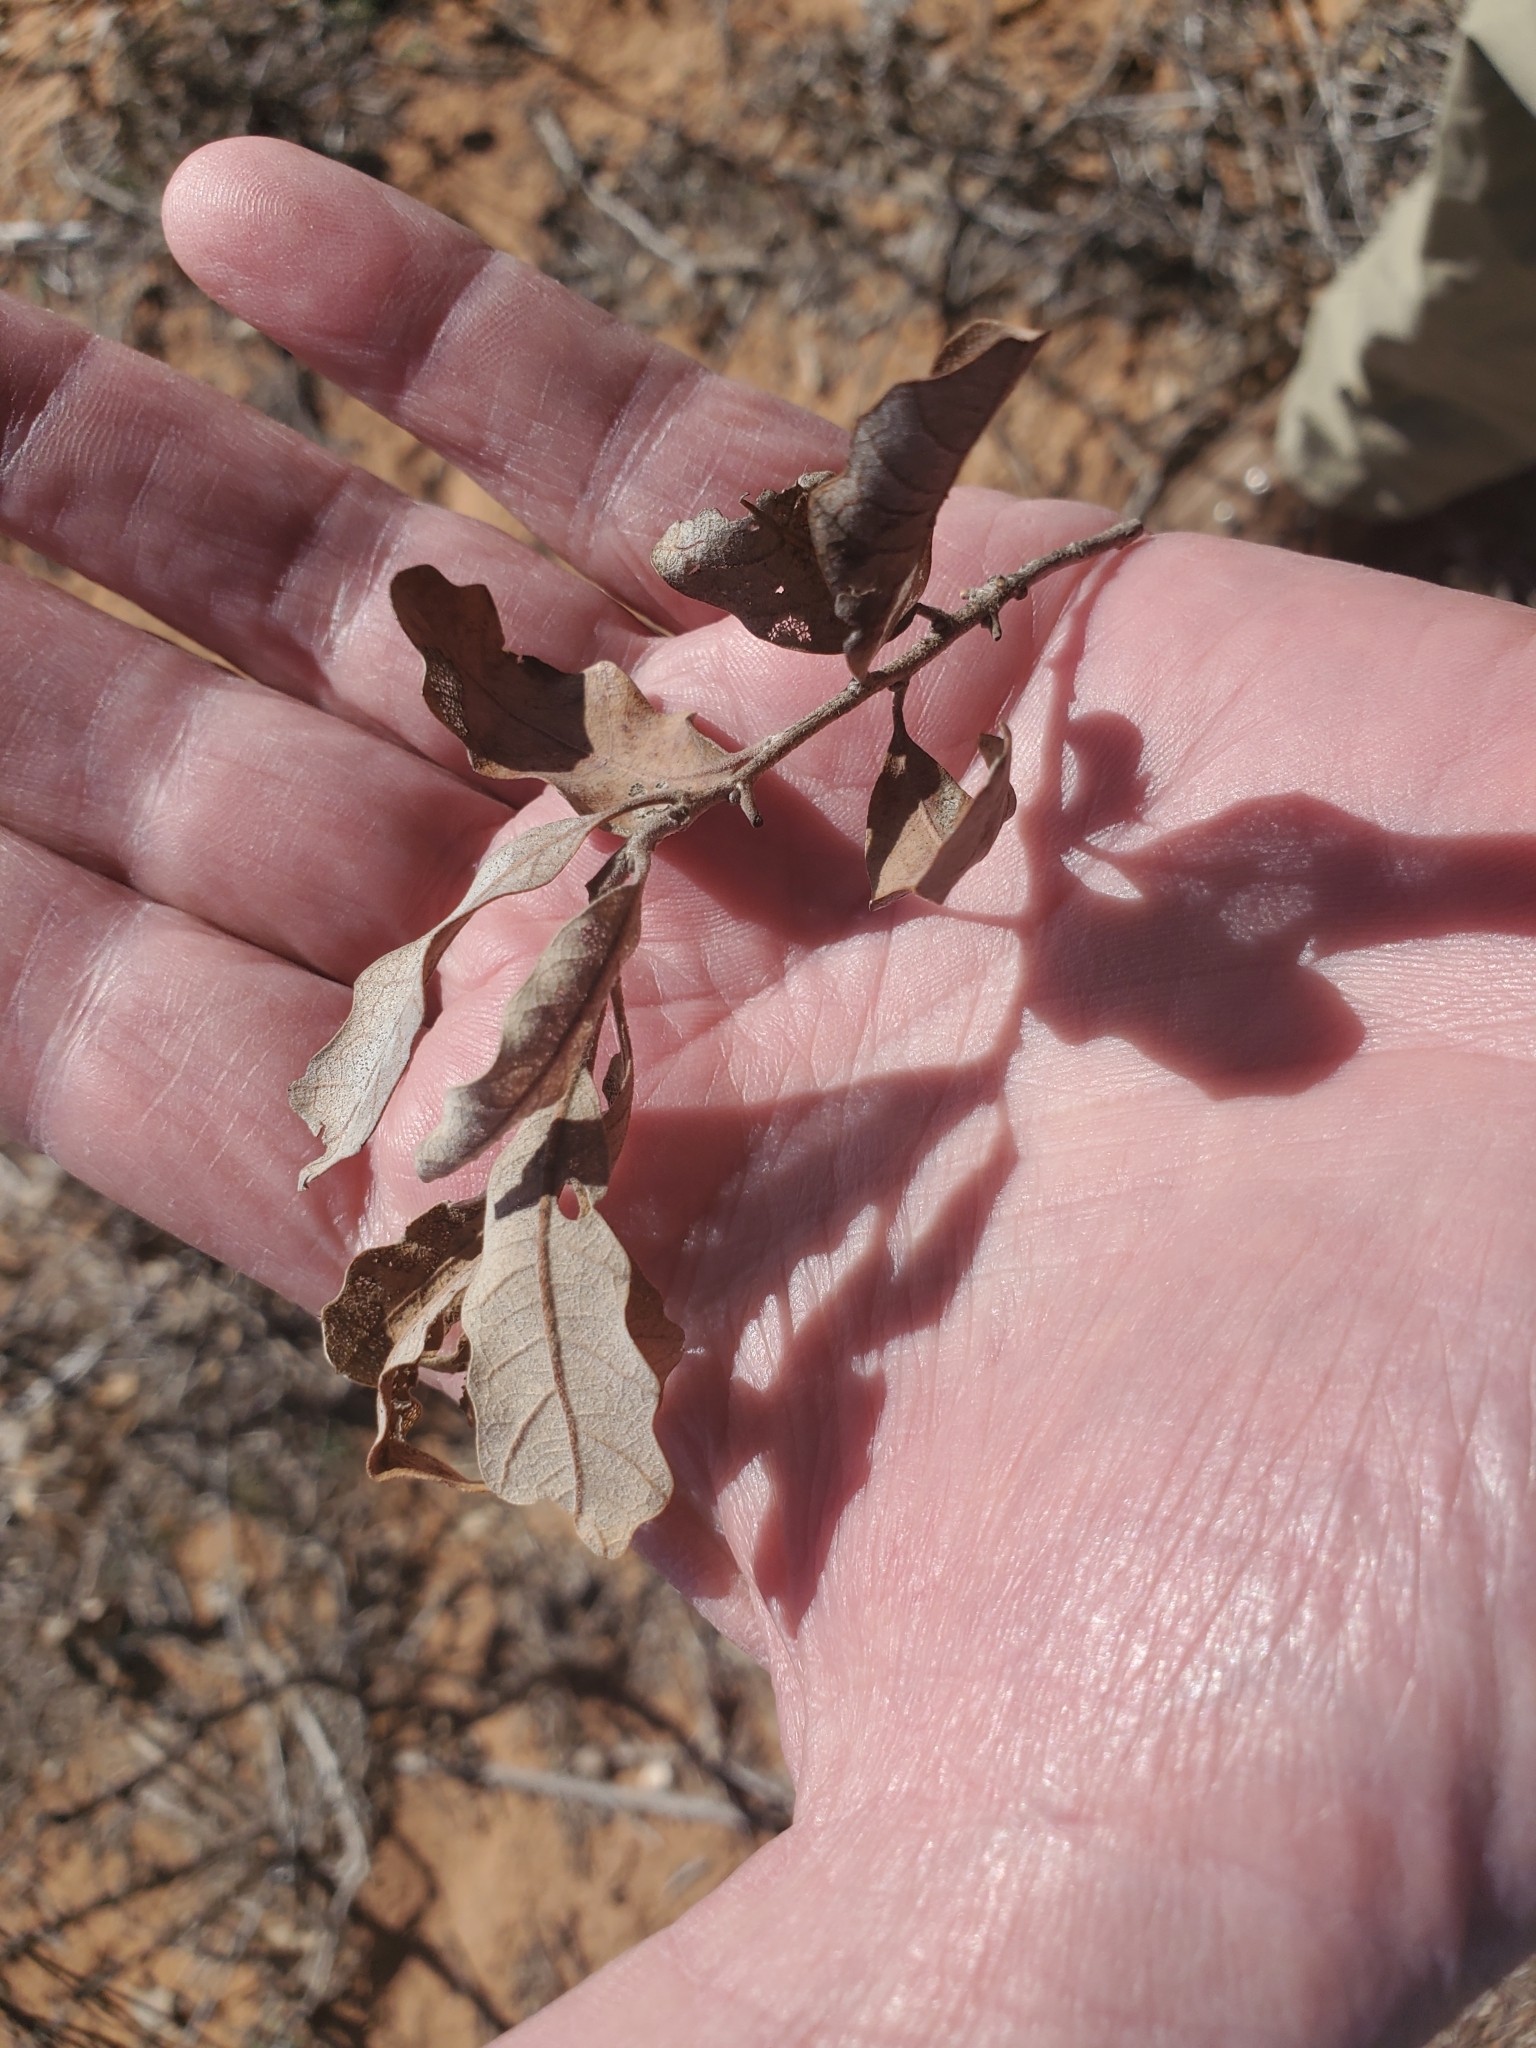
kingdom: Plantae
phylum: Tracheophyta
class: Magnoliopsida
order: Fagales
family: Fagaceae
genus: Quercus
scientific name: Quercus havardii
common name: Shinnery oak
